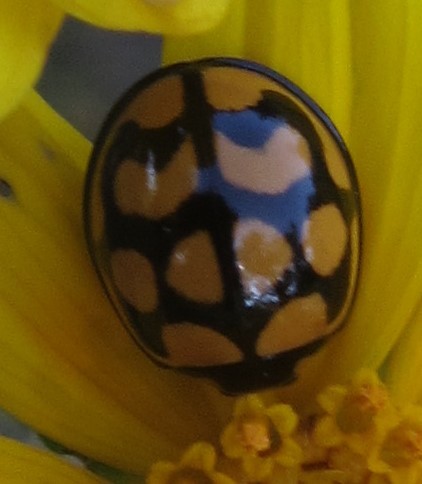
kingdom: Animalia
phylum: Arthropoda
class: Insecta
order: Coleoptera
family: Coccinellidae
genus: Cheilomenes
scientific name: Cheilomenes lunata
